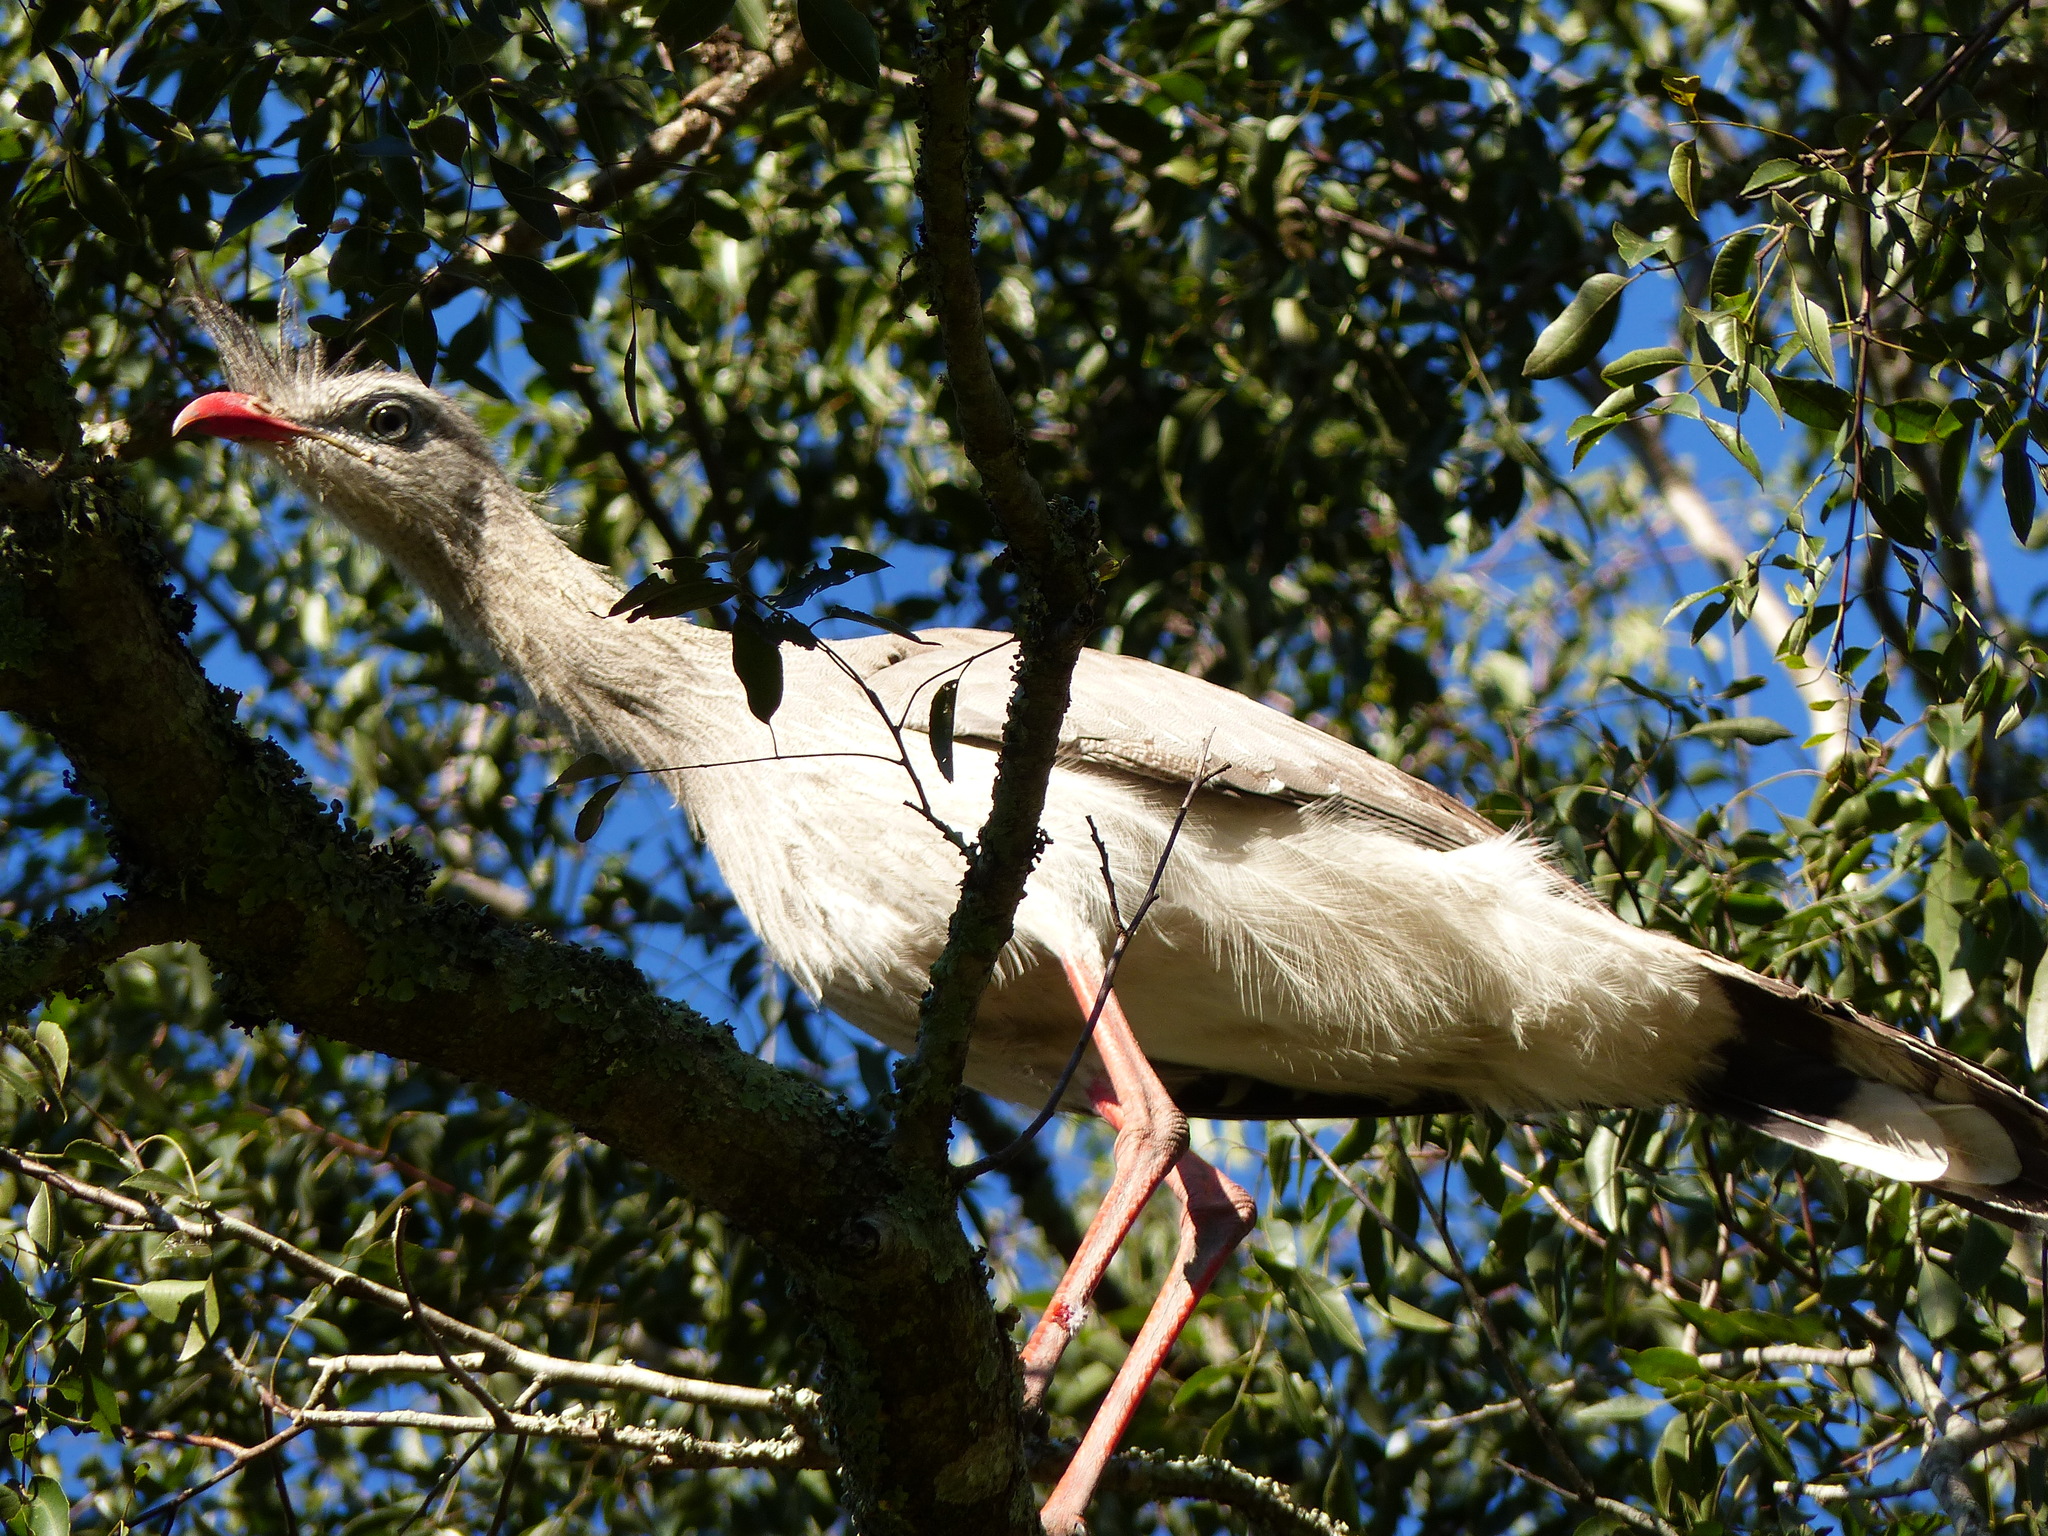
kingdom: Animalia
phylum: Chordata
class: Aves
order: Cariamiformes
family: Cariamidae
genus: Cariama
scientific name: Cariama cristata
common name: Red-legged seriema
